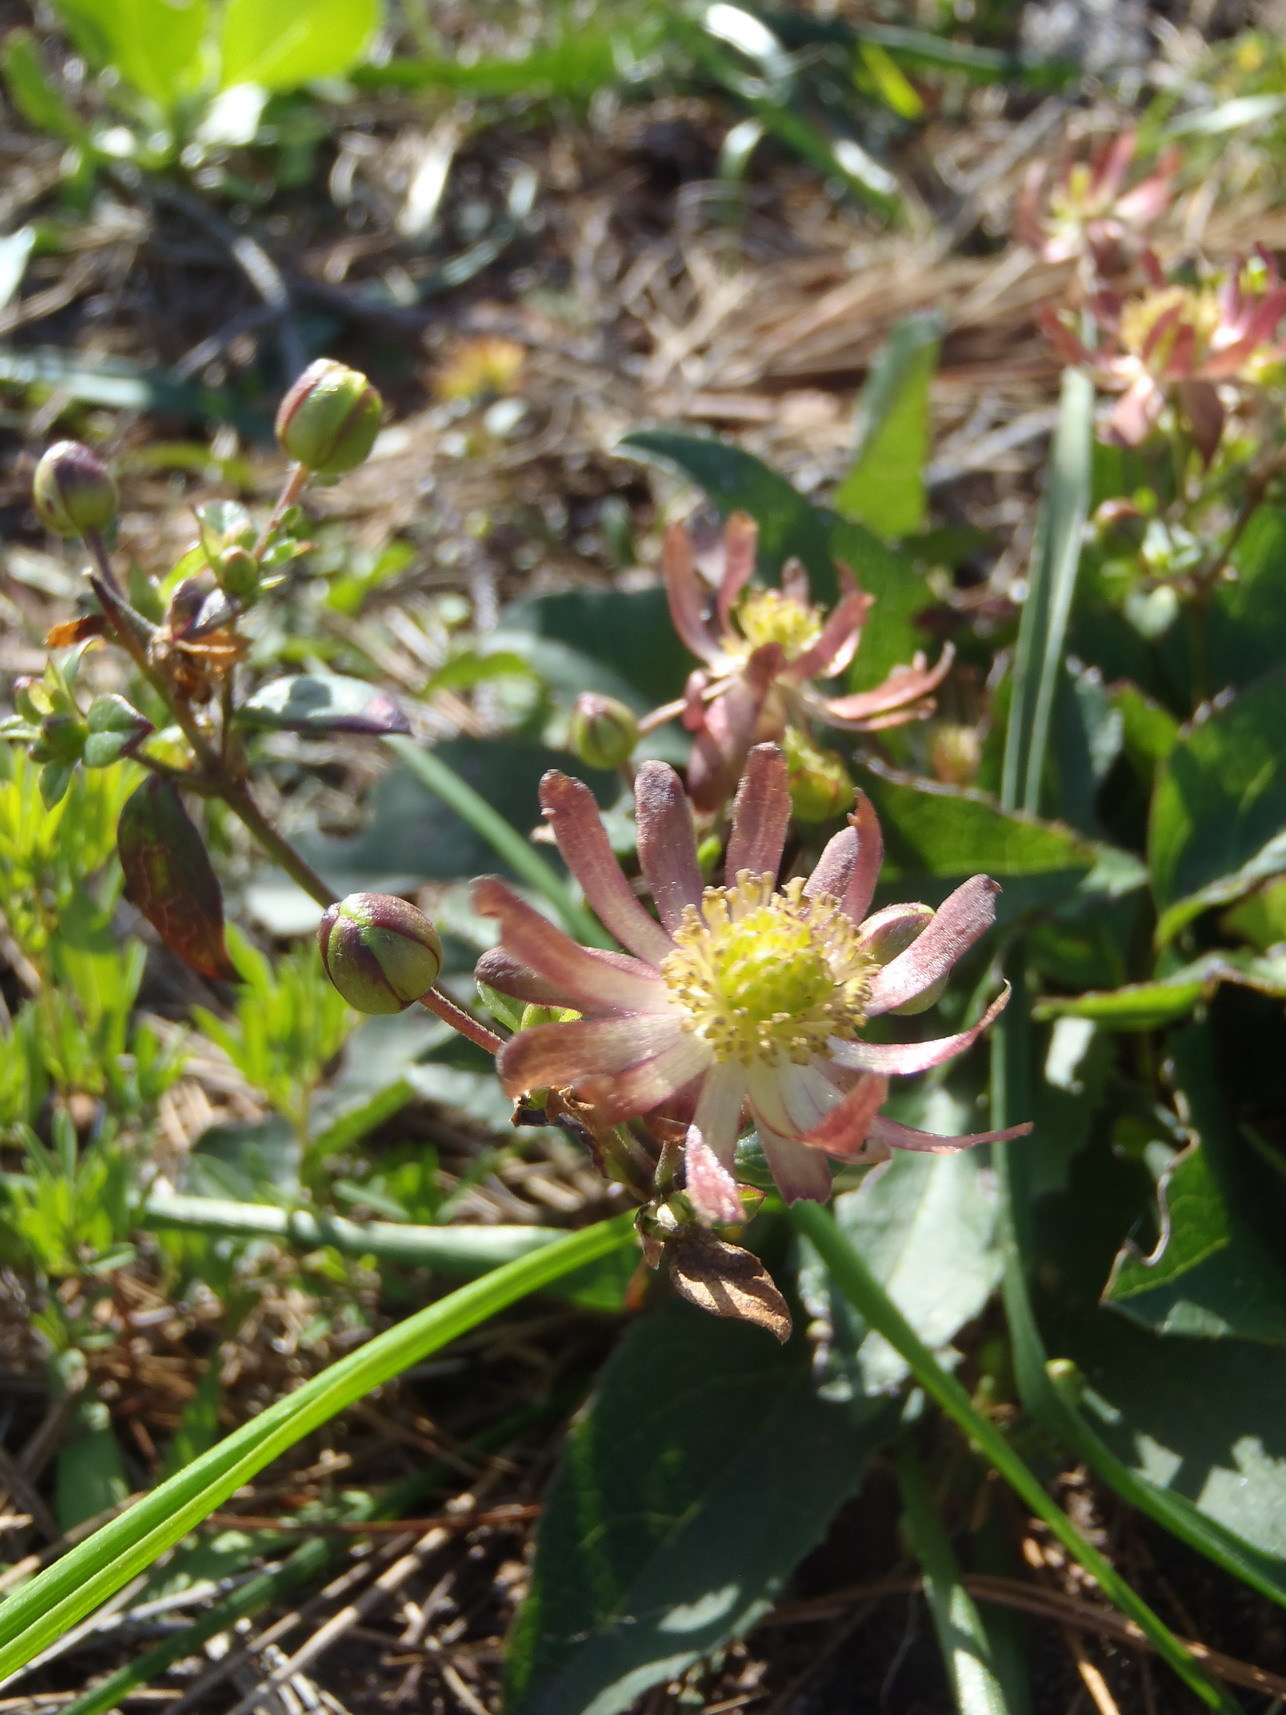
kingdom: Plantae
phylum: Tracheophyta
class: Magnoliopsida
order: Ranunculales
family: Ranunculaceae
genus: Knowltonia
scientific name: Knowltonia vesicatoria
